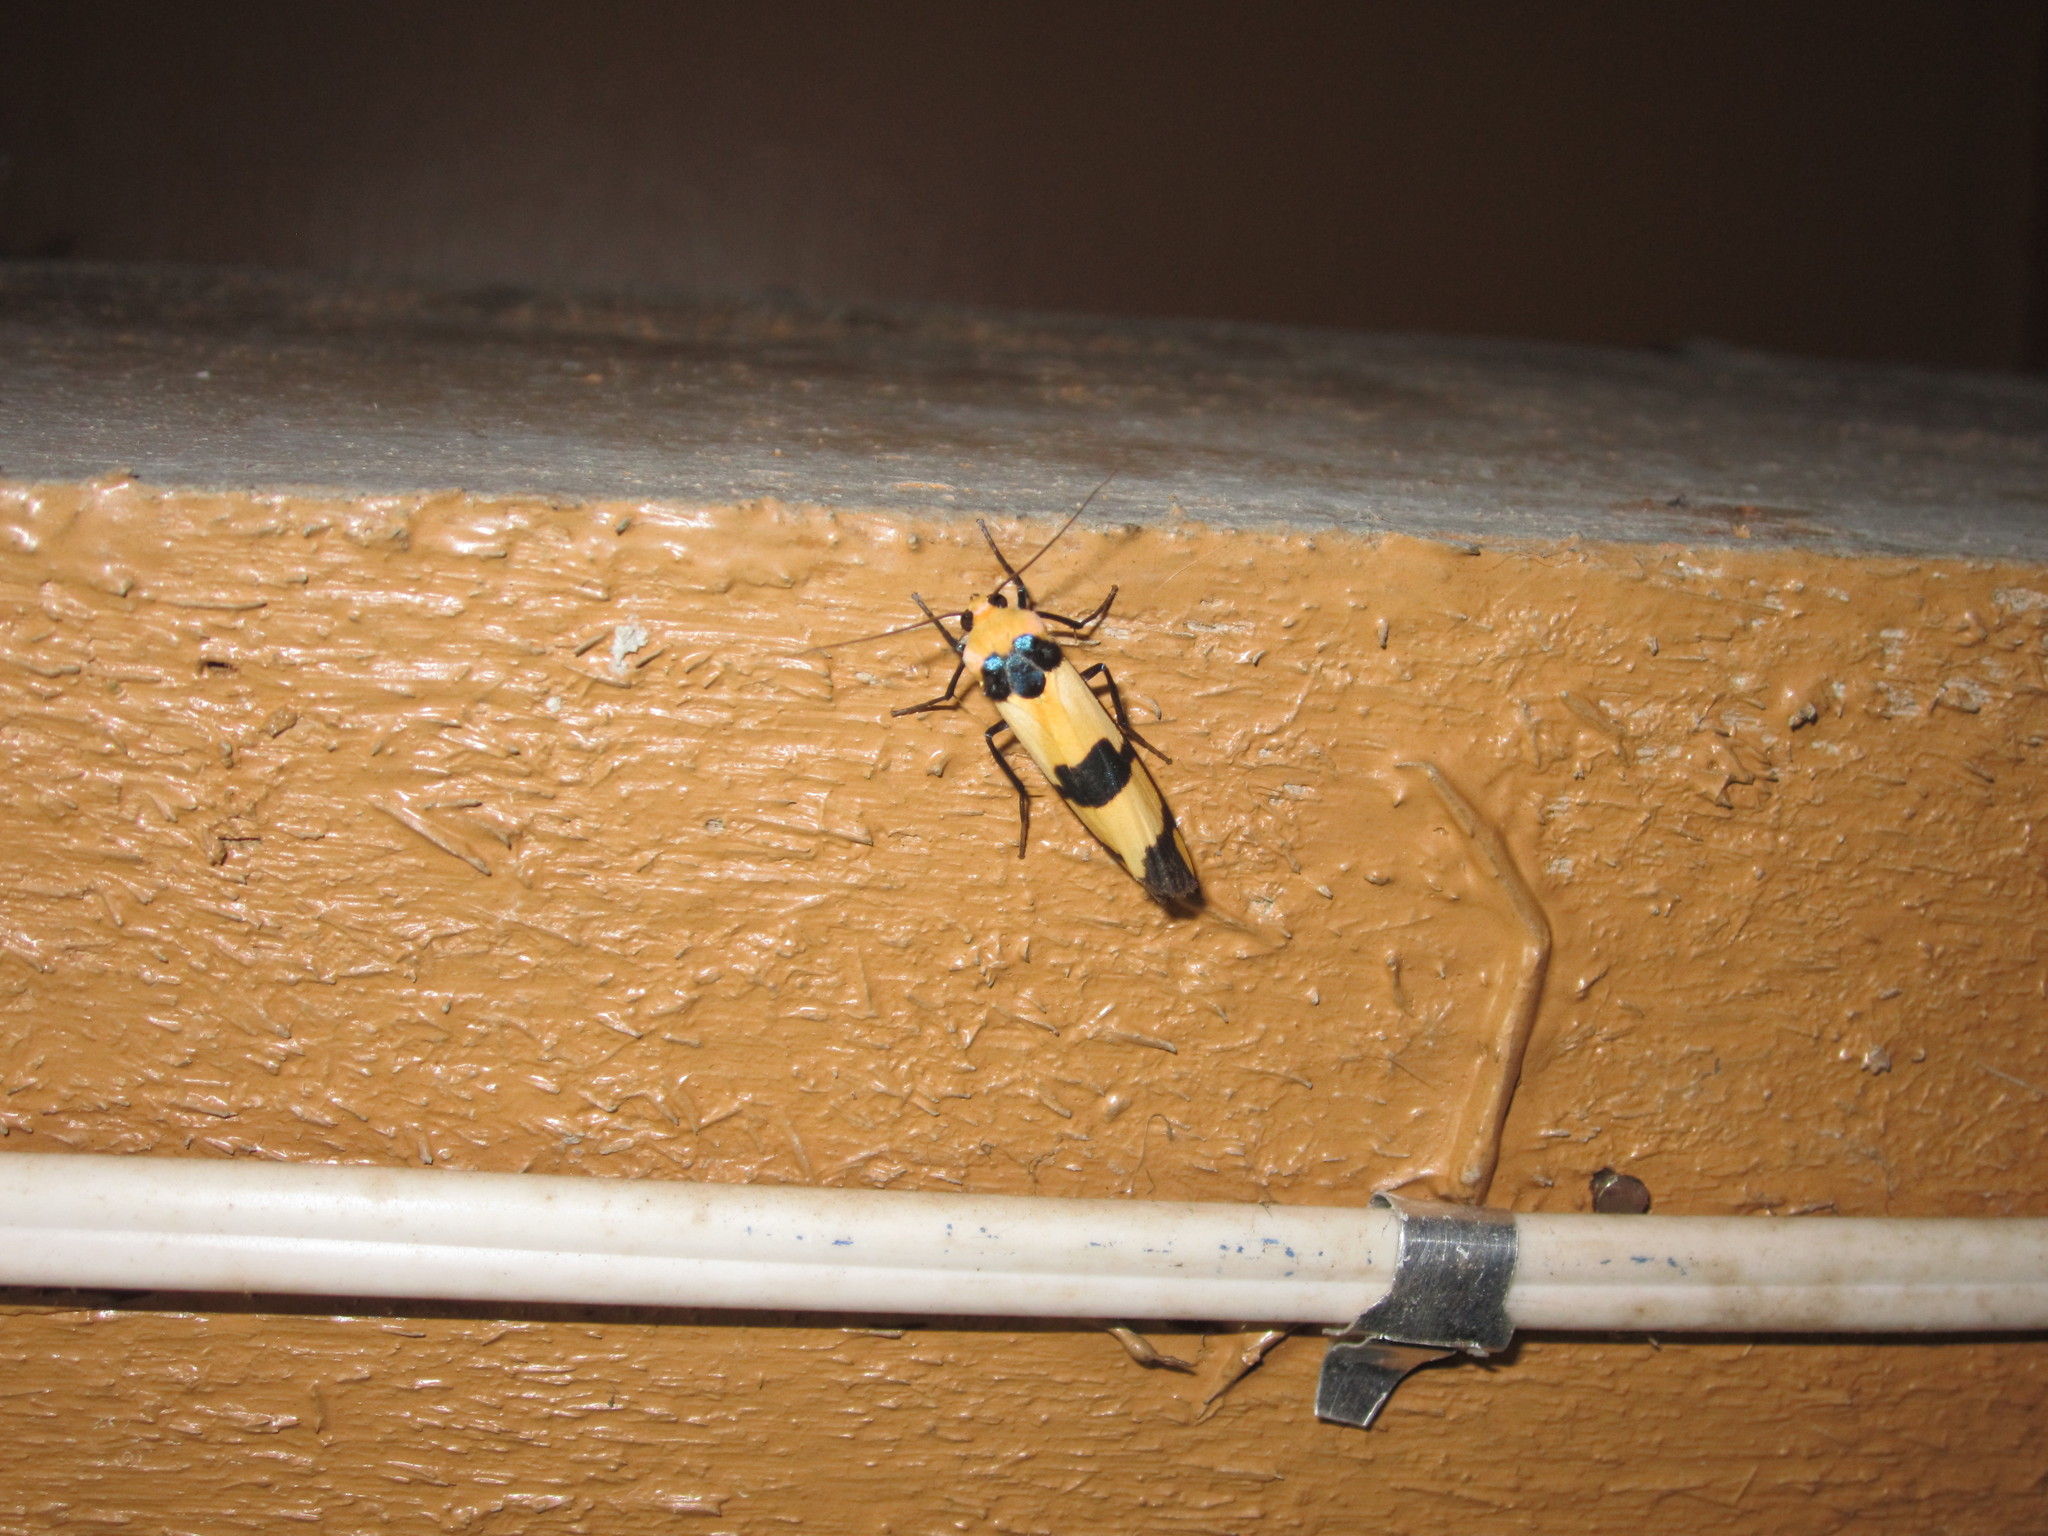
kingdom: Animalia
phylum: Arthropoda
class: Insecta
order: Lepidoptera
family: Erebidae
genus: Oeonistis
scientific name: Oeonistis delia
